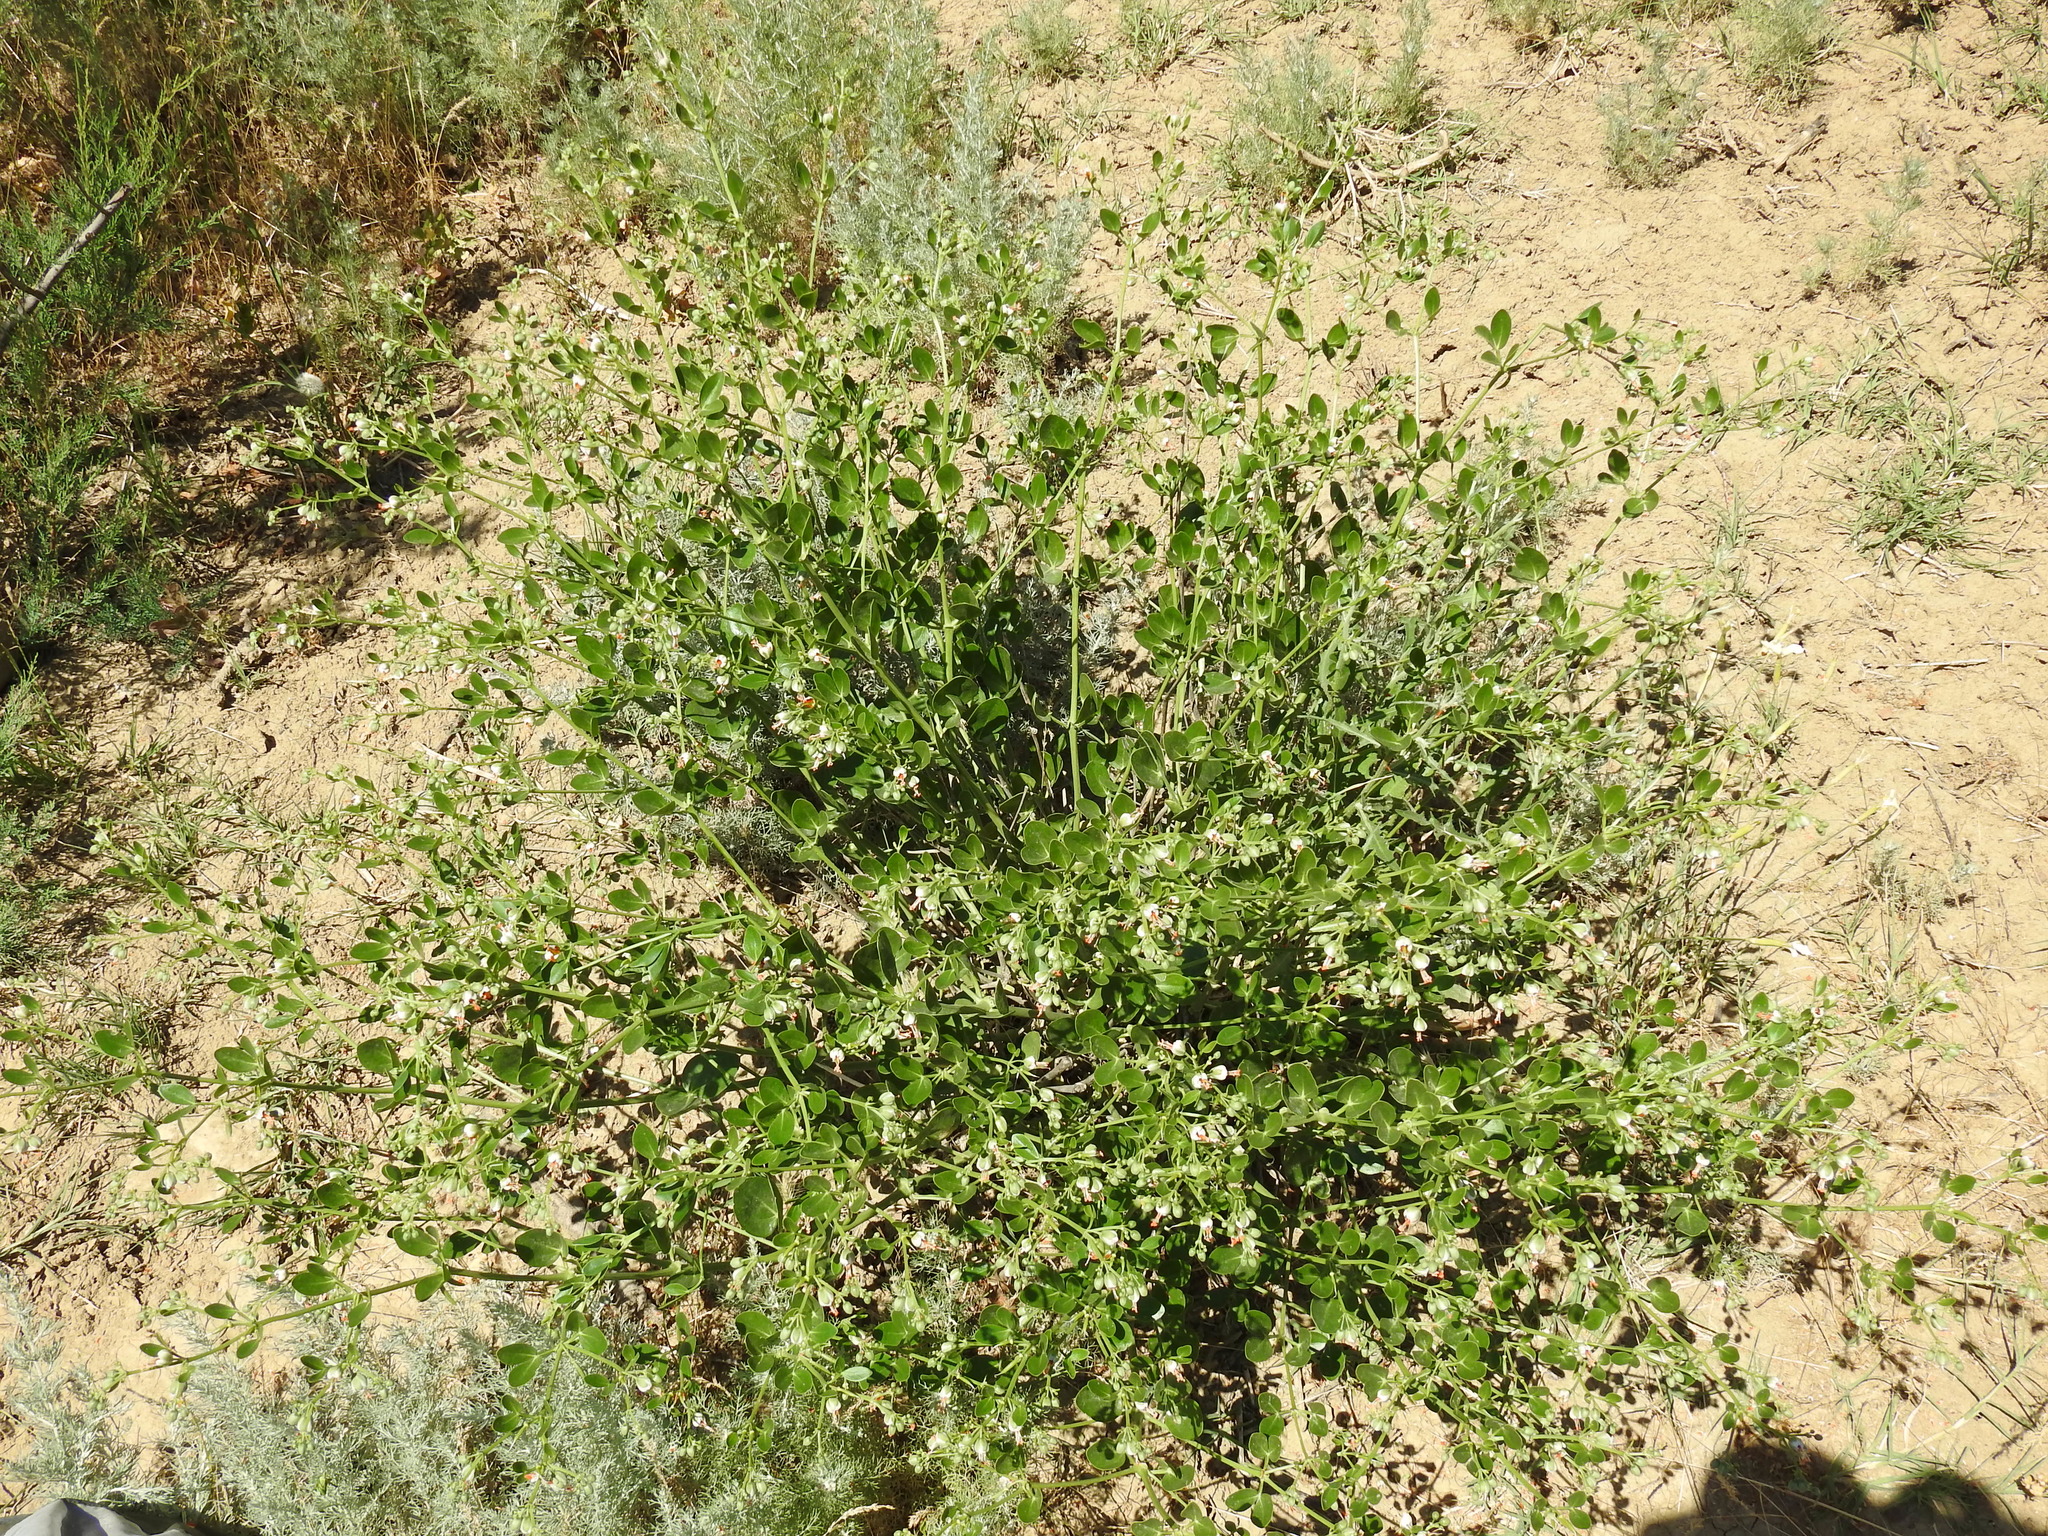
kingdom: Plantae
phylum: Tracheophyta
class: Magnoliopsida
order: Zygophyllales
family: Zygophyllaceae
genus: Zygophyllum
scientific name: Zygophyllum fabago
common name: Syrian beancaper
